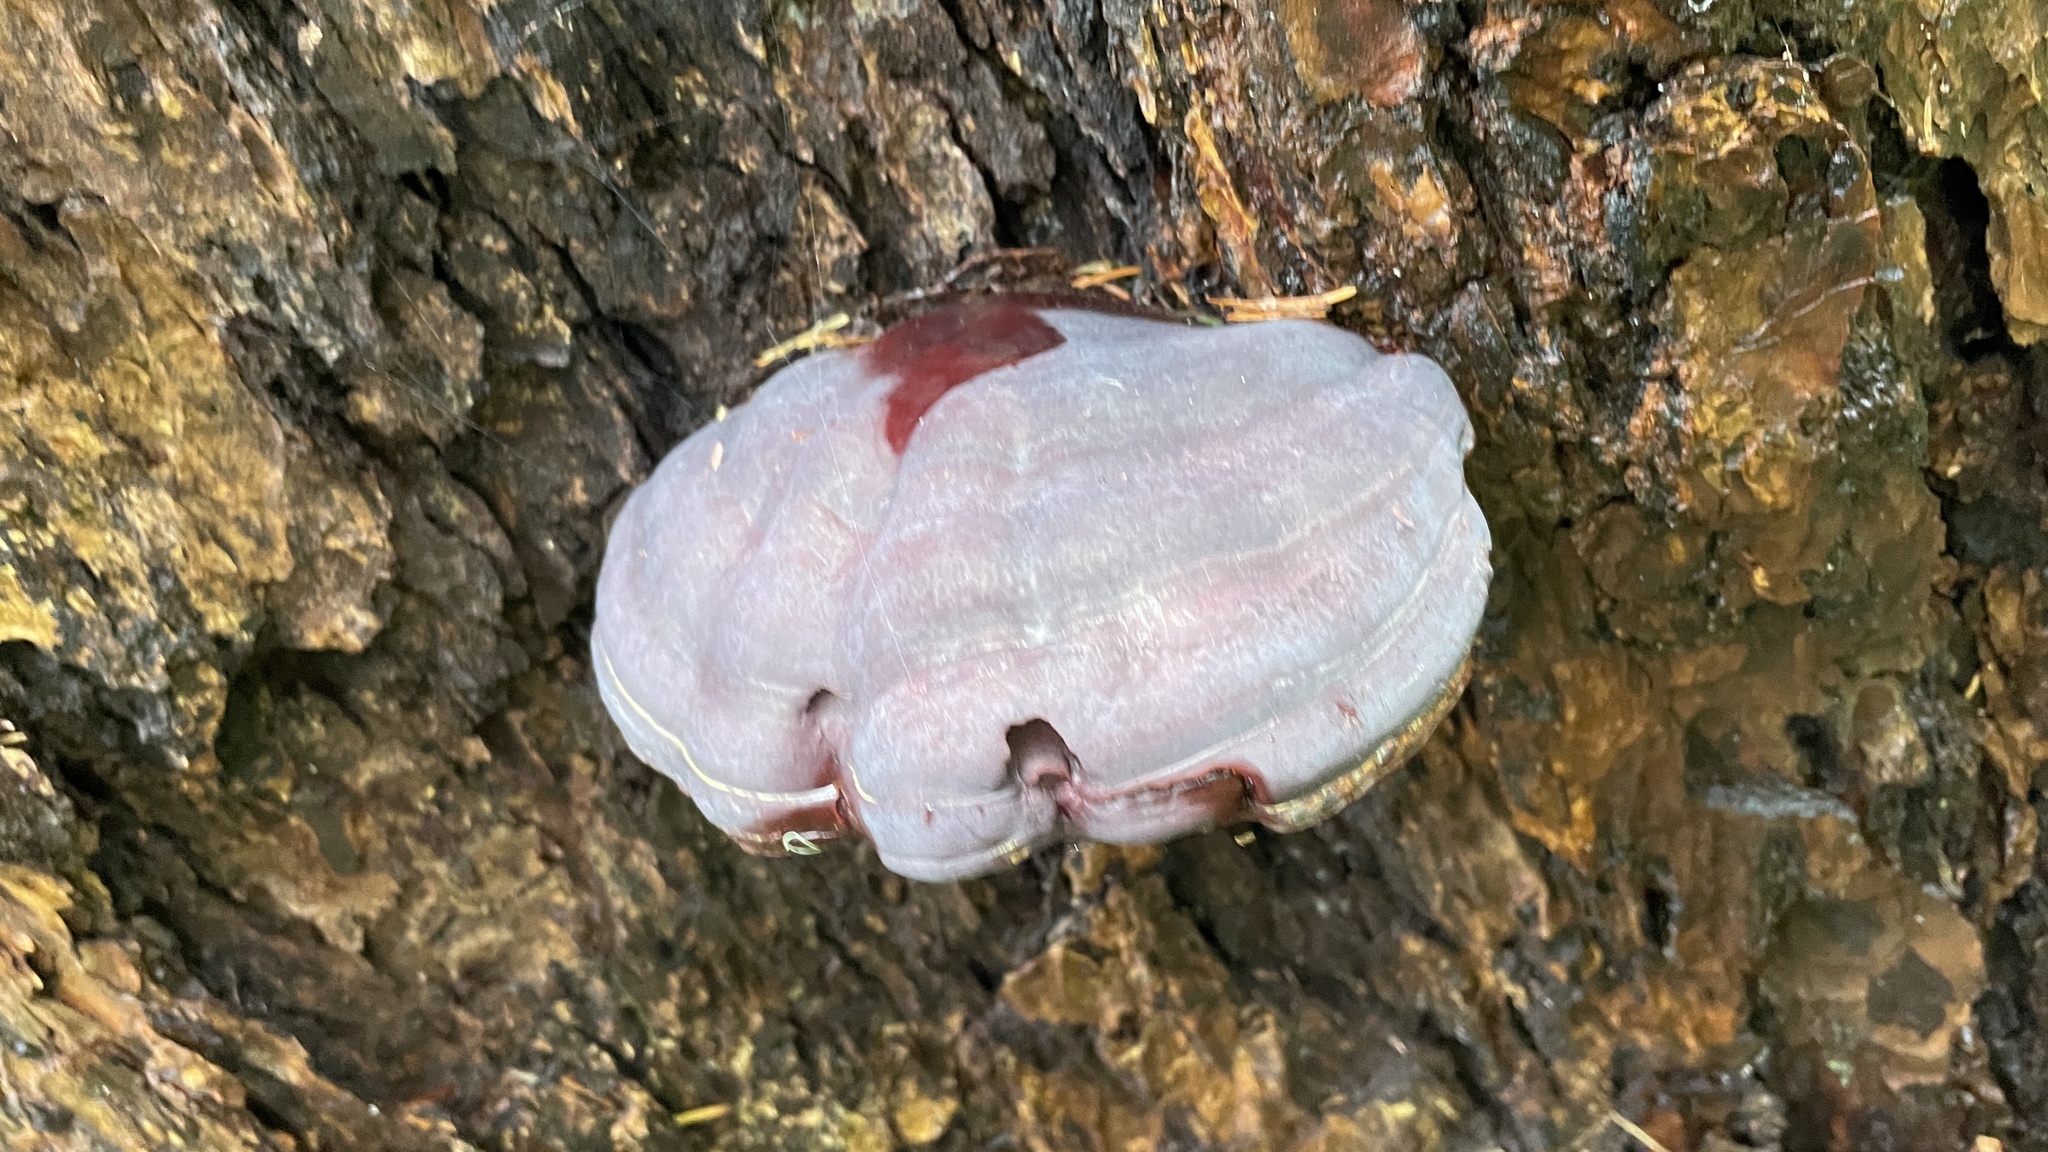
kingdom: Fungi
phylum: Basidiomycota
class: Agaricomycetes
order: Polyporales
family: Polyporaceae
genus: Ganoderma
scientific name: Ganoderma oregonense
